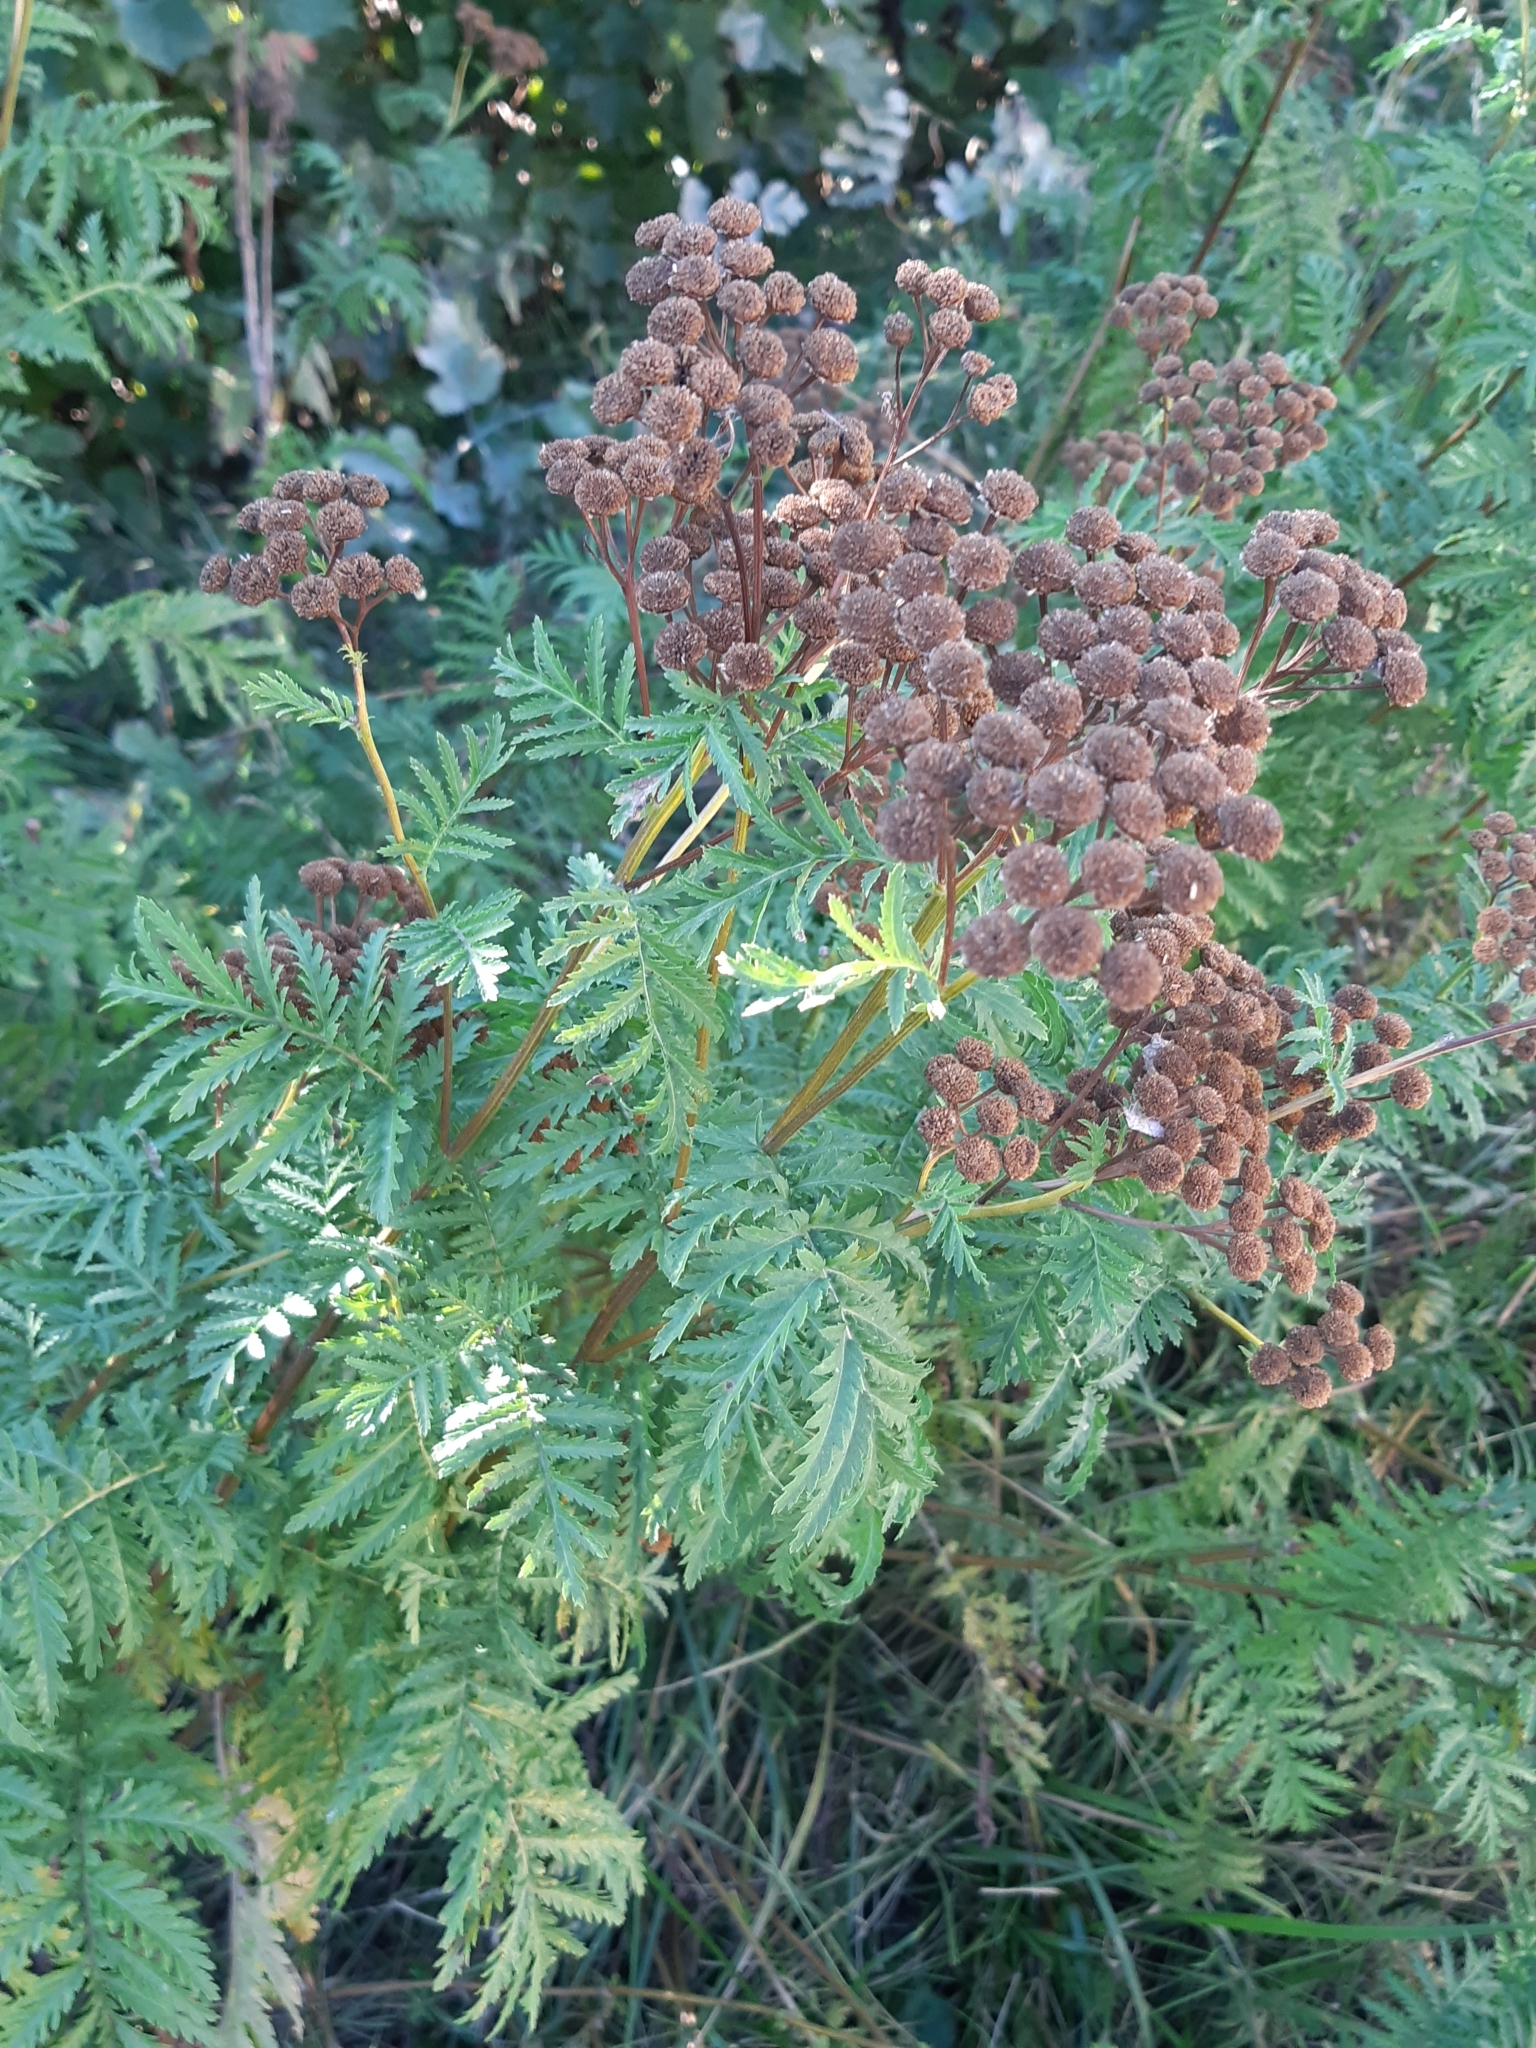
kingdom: Plantae
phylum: Tracheophyta
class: Magnoliopsida
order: Asterales
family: Asteraceae
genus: Tanacetum
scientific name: Tanacetum vulgare
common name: Common tansy
